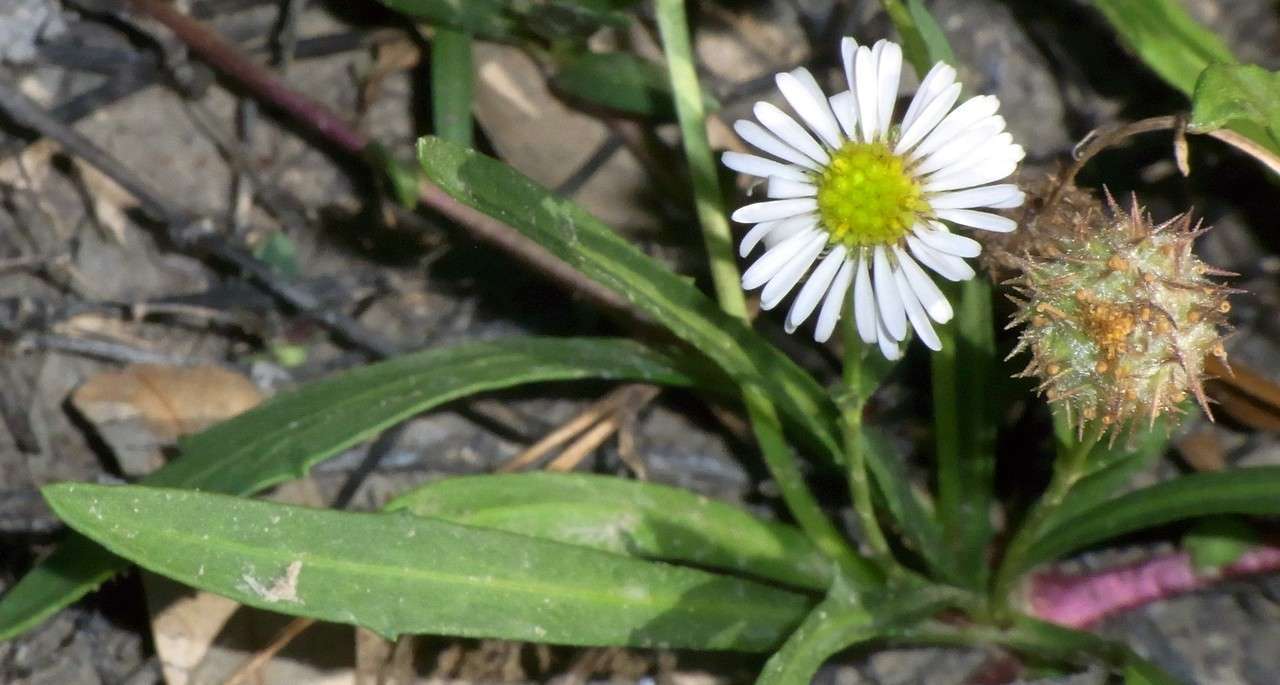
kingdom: Plantae
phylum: Tracheophyta
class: Magnoliopsida
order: Asterales
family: Asteraceae
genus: Calotis
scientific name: Calotis scapigera
